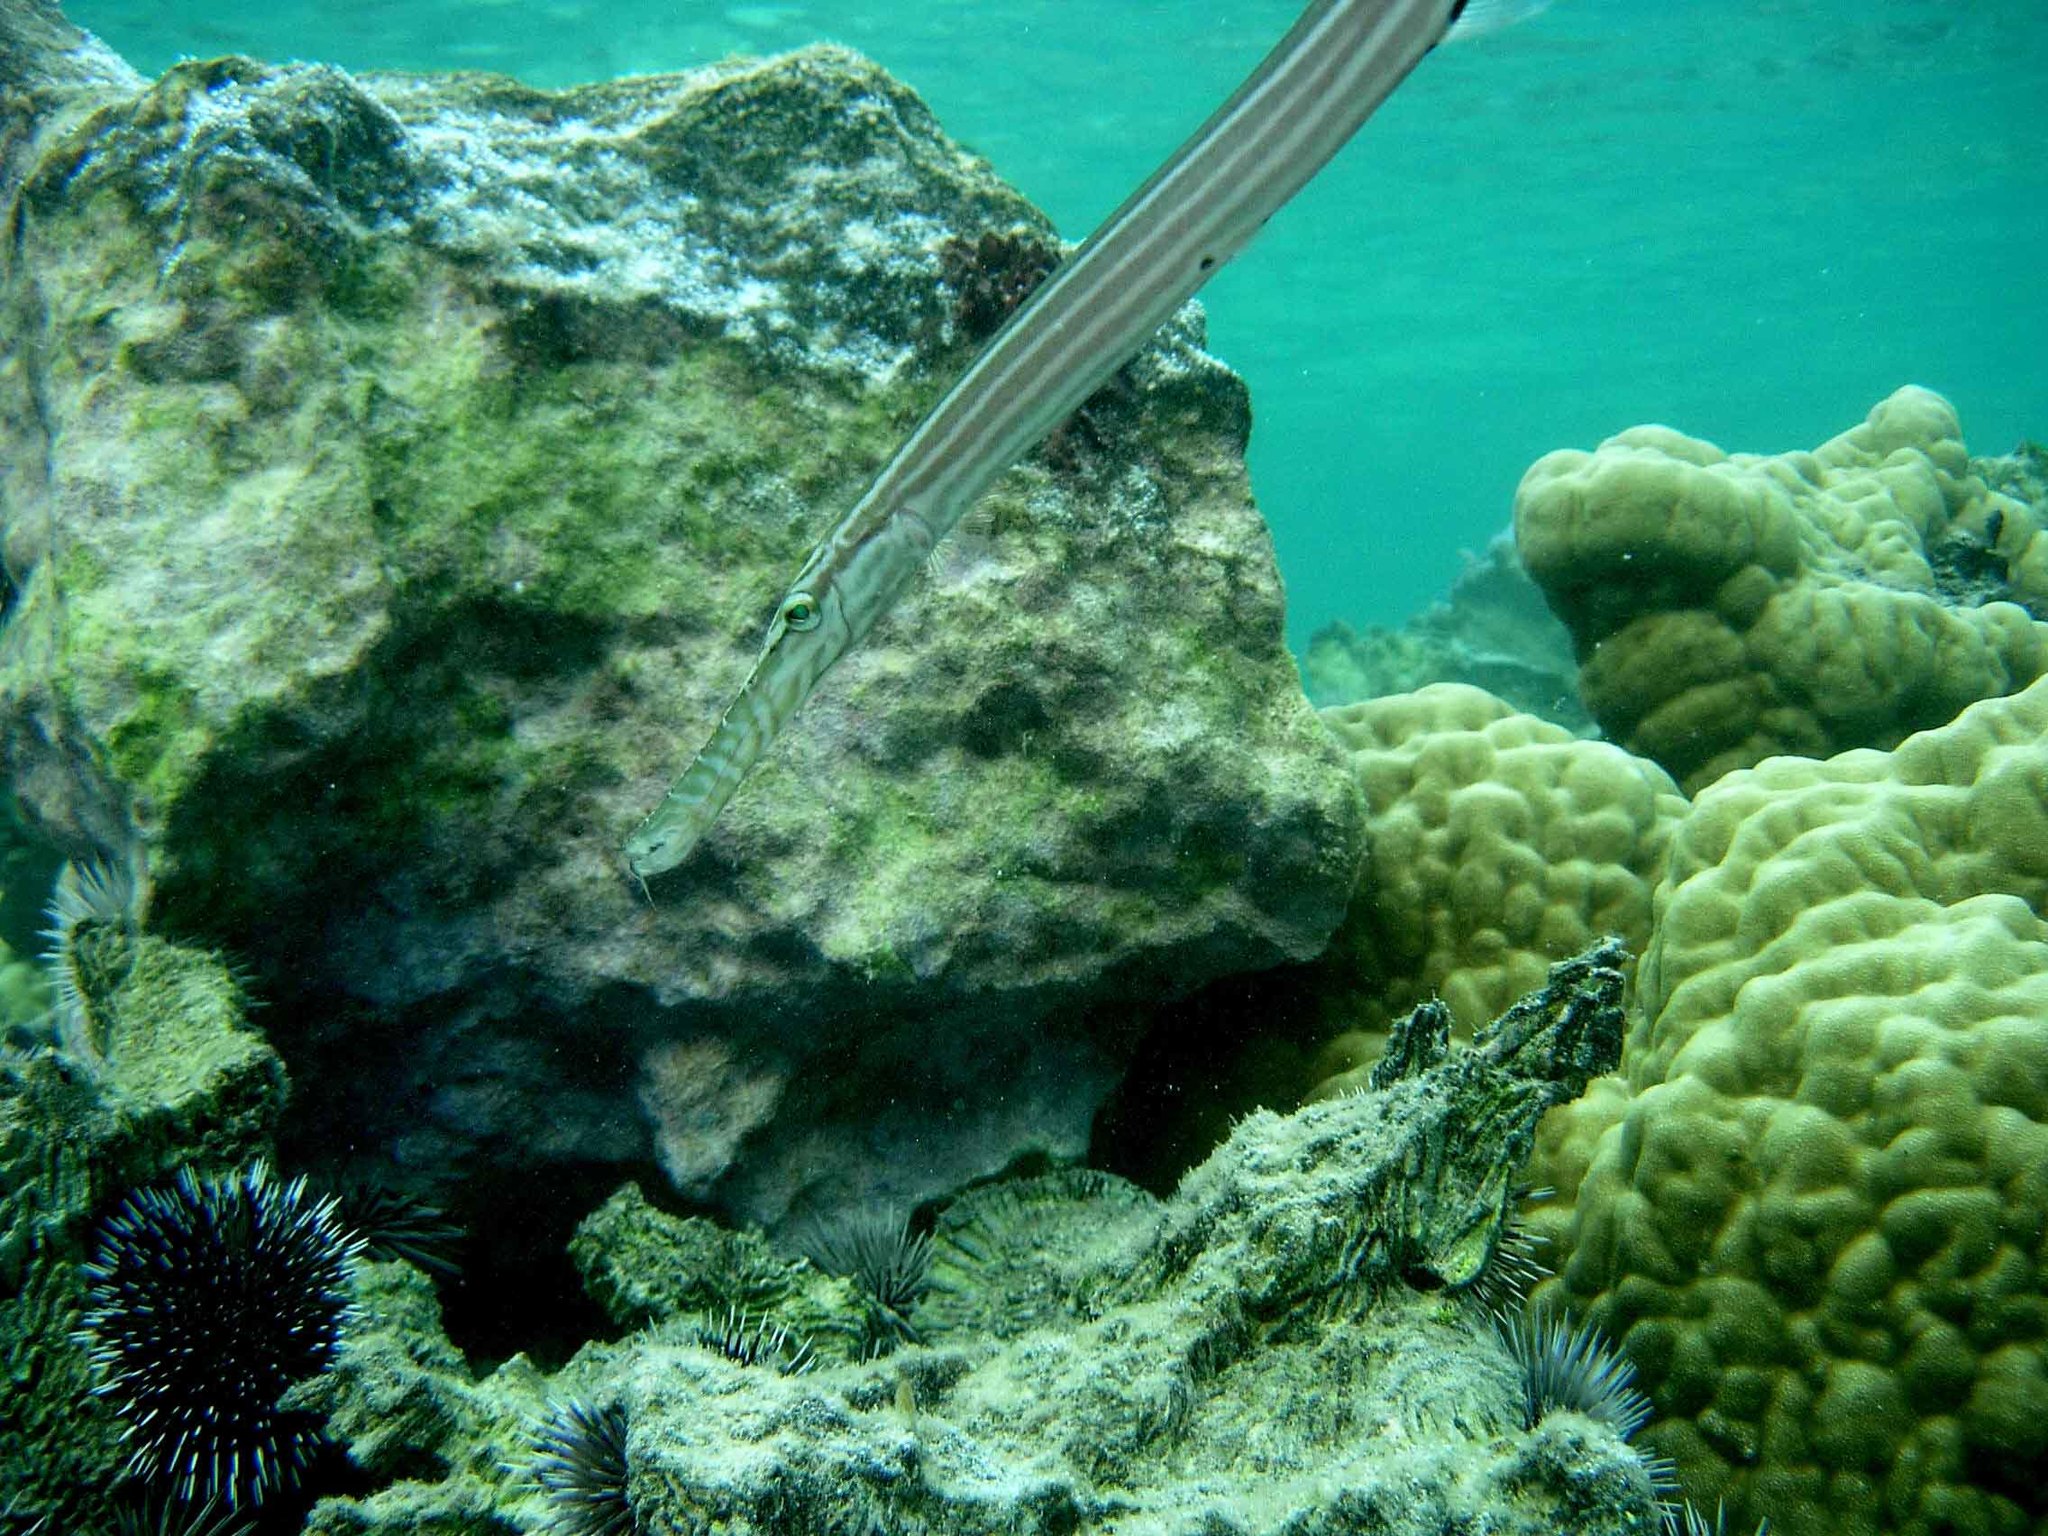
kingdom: Animalia
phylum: Chordata
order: Syngnathiformes
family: Aulostomidae
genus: Aulostomus
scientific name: Aulostomus chinensis
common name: Chinese trumpetfish
